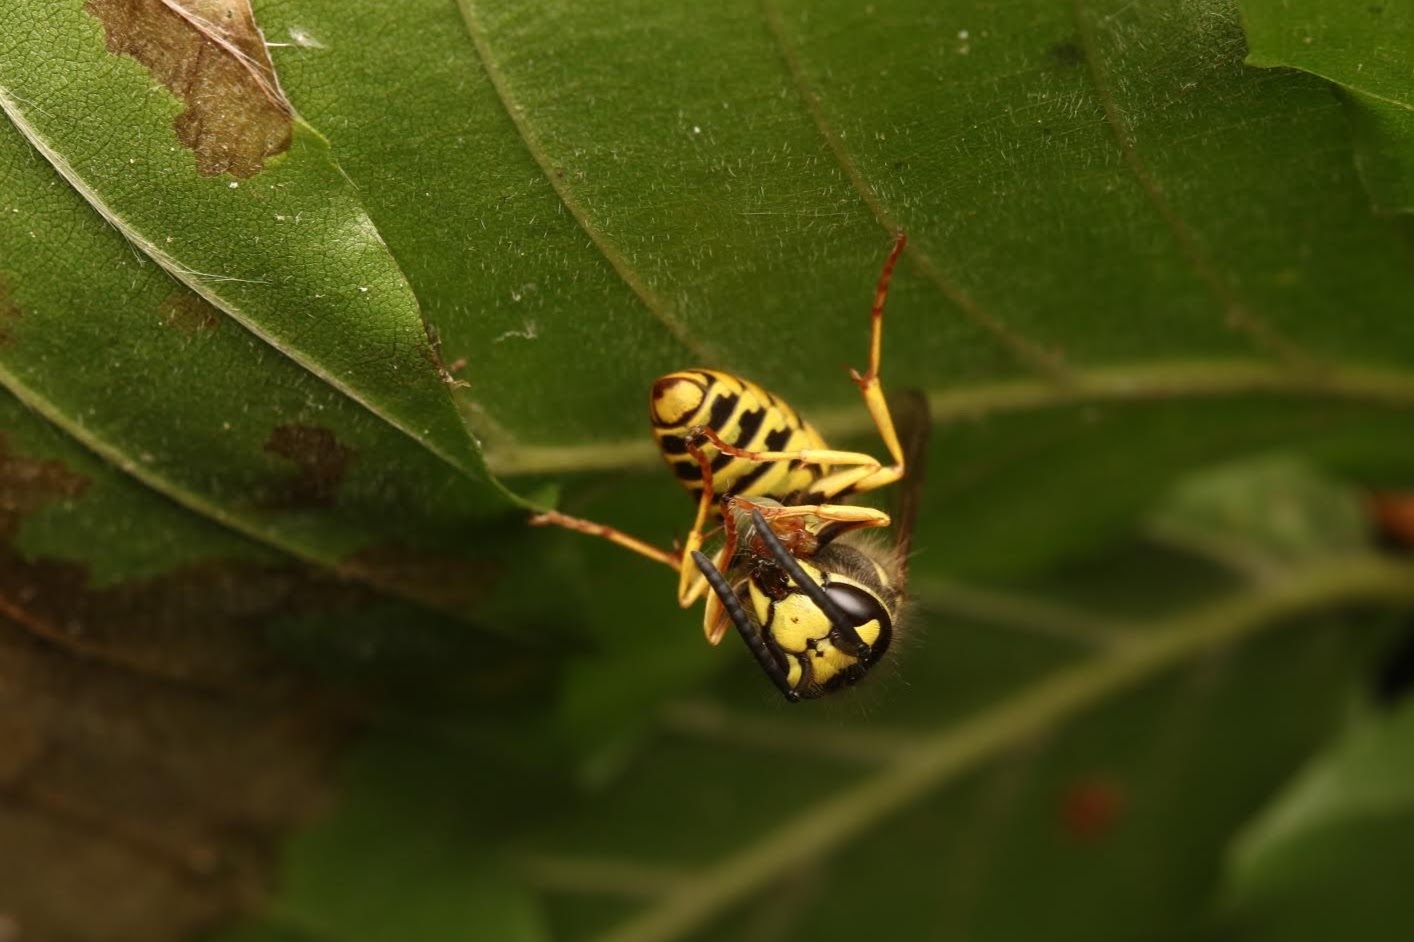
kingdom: Animalia
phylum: Arthropoda
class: Insecta
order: Hymenoptera
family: Vespidae
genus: Vespula
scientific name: Vespula
